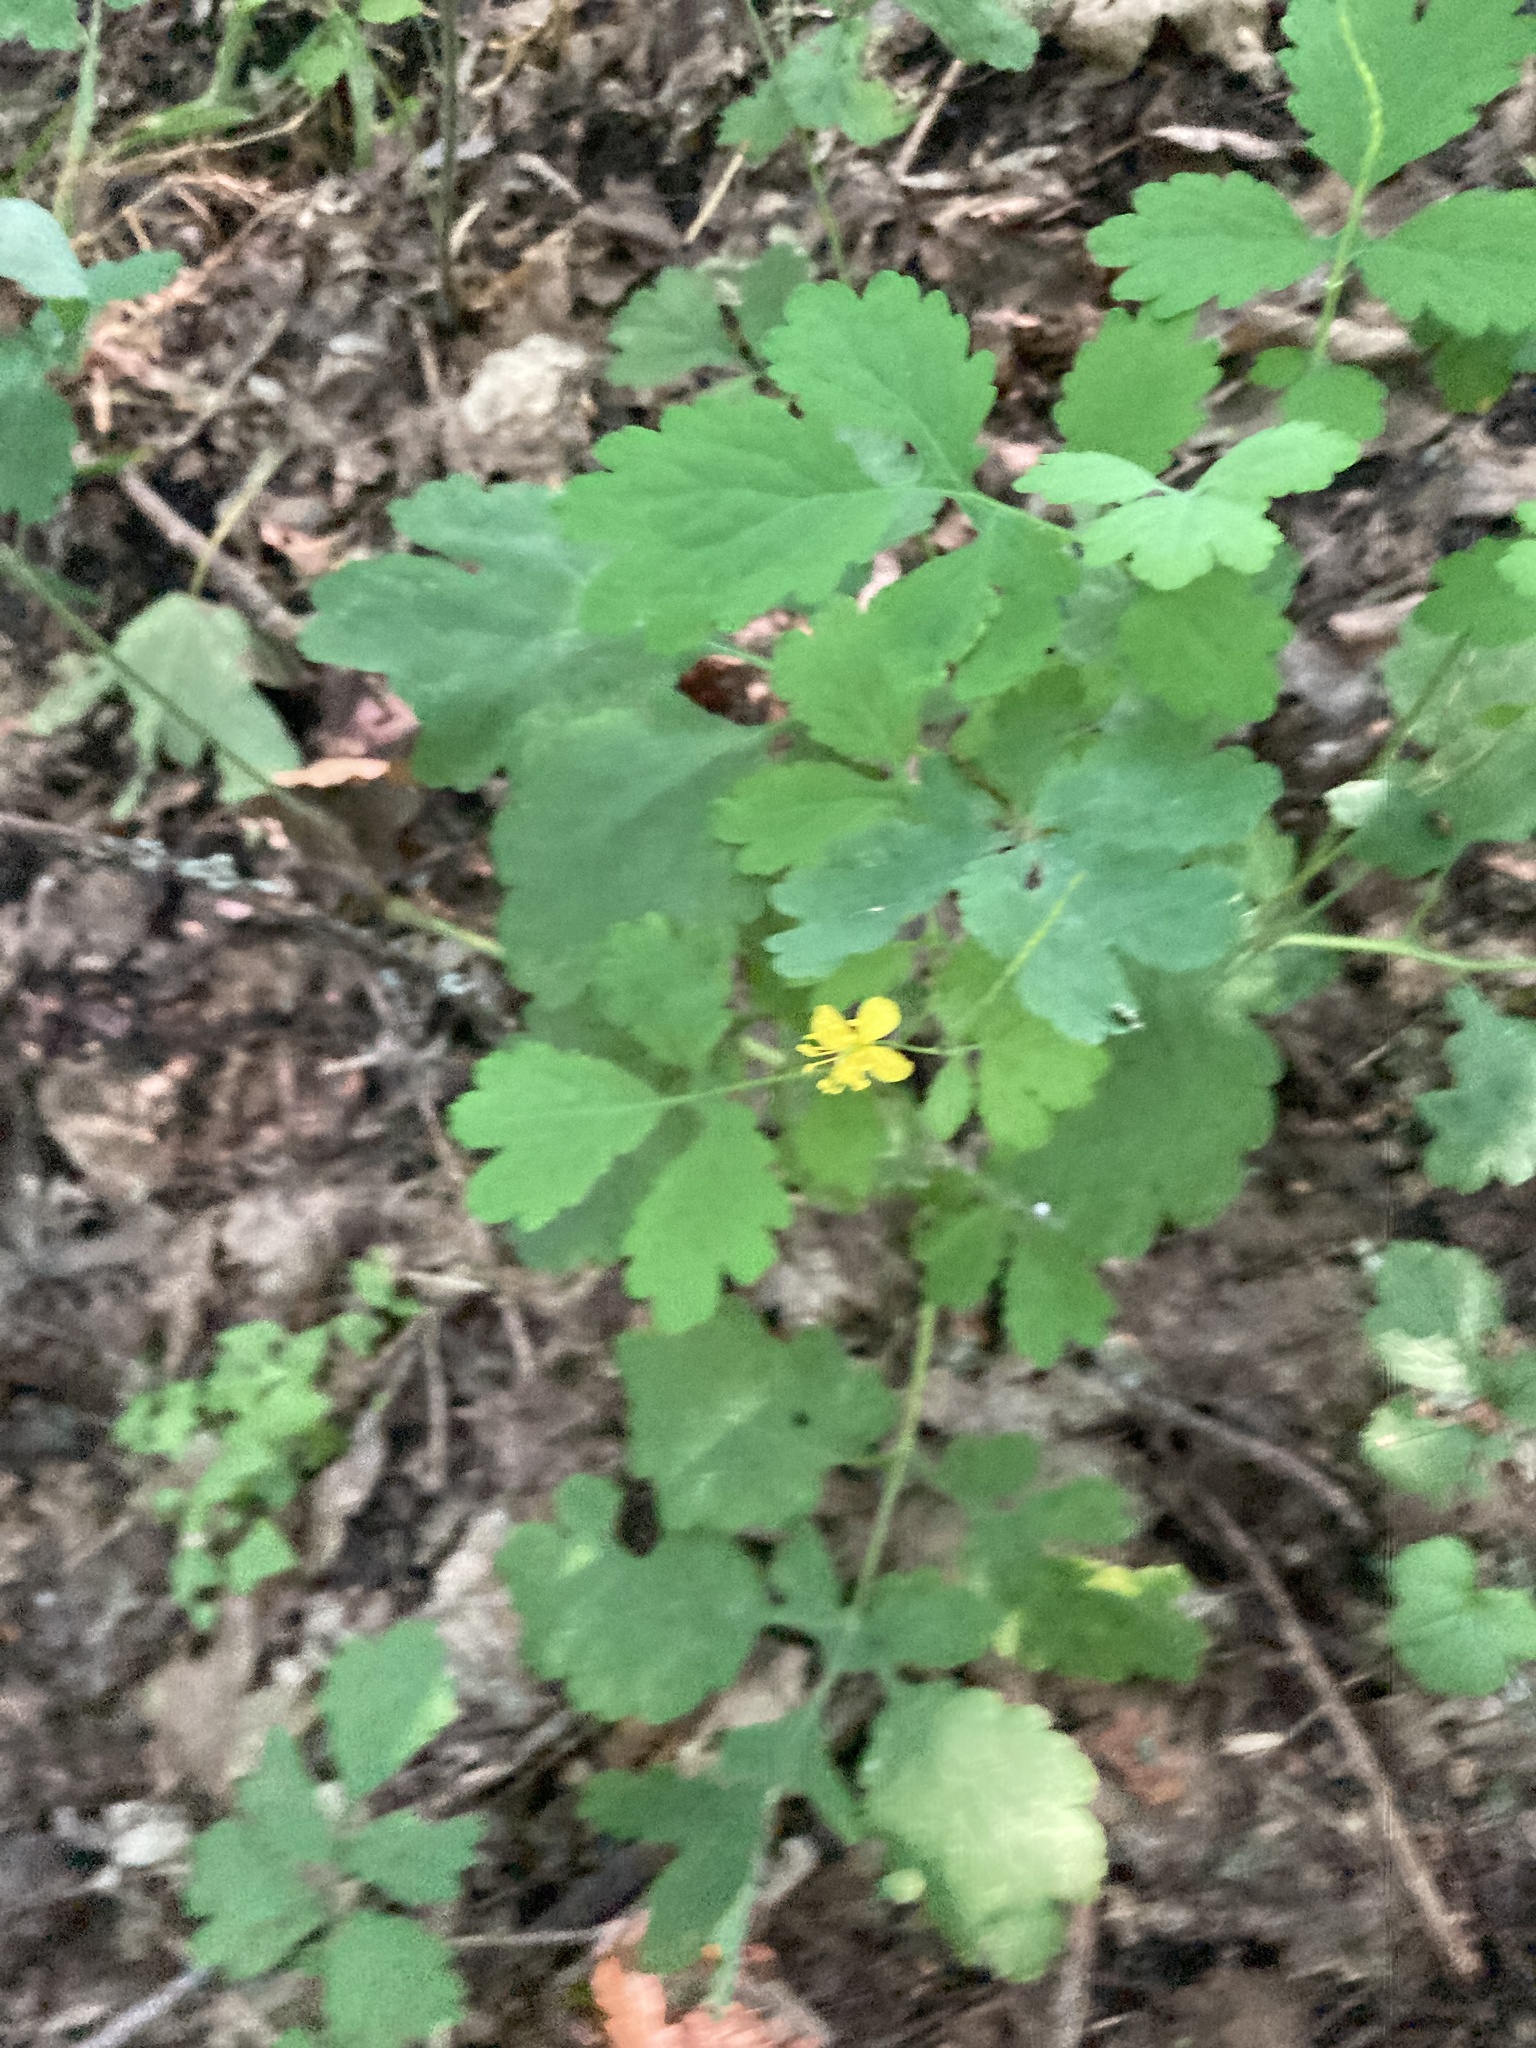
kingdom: Plantae
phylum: Tracheophyta
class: Magnoliopsida
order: Ranunculales
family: Papaveraceae
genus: Chelidonium
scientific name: Chelidonium majus
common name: Greater celandine
